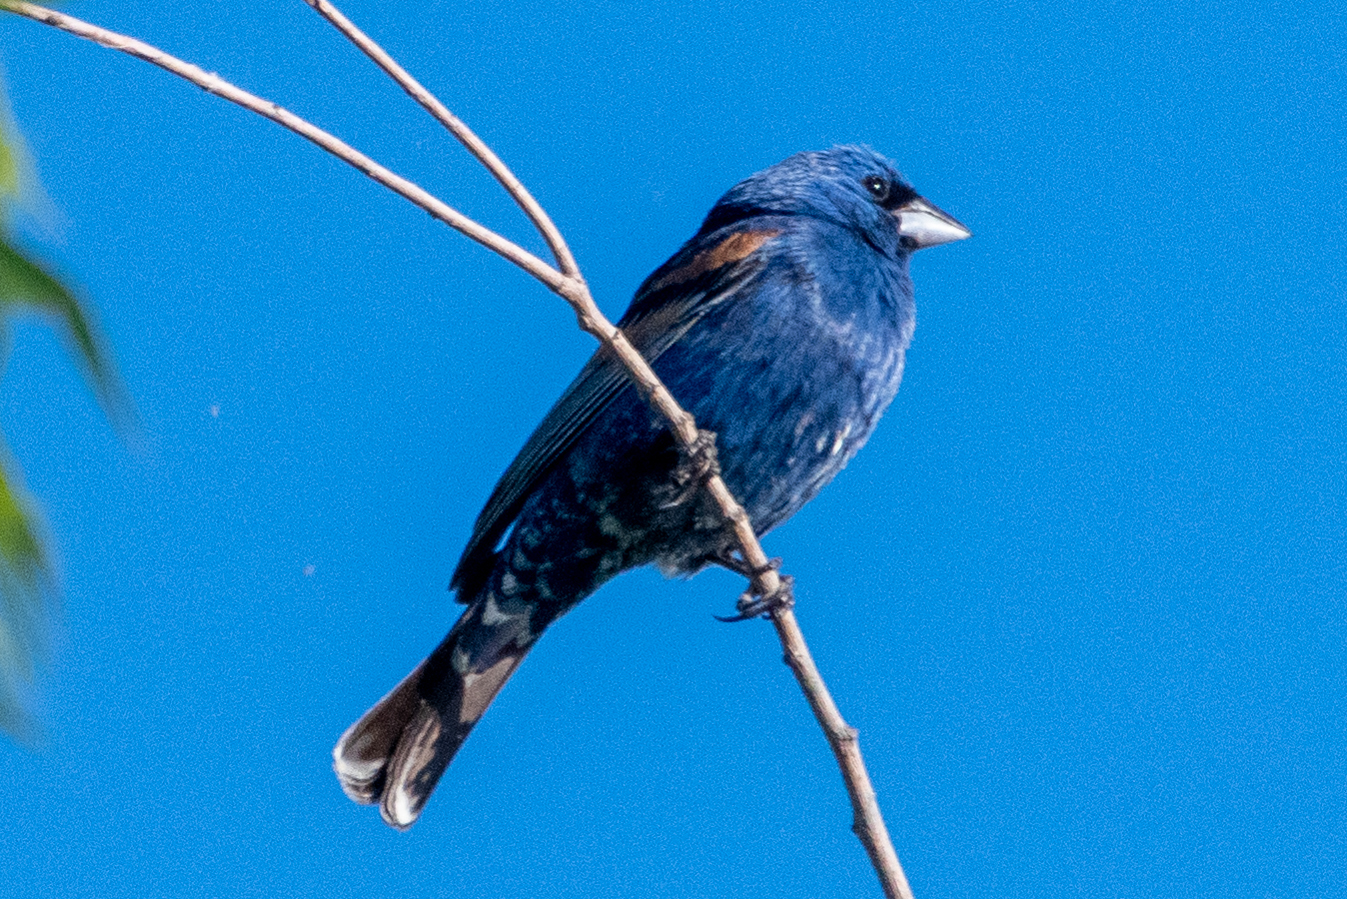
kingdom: Animalia
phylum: Chordata
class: Aves
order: Passeriformes
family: Cardinalidae
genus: Passerina
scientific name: Passerina caerulea
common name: Blue grosbeak
